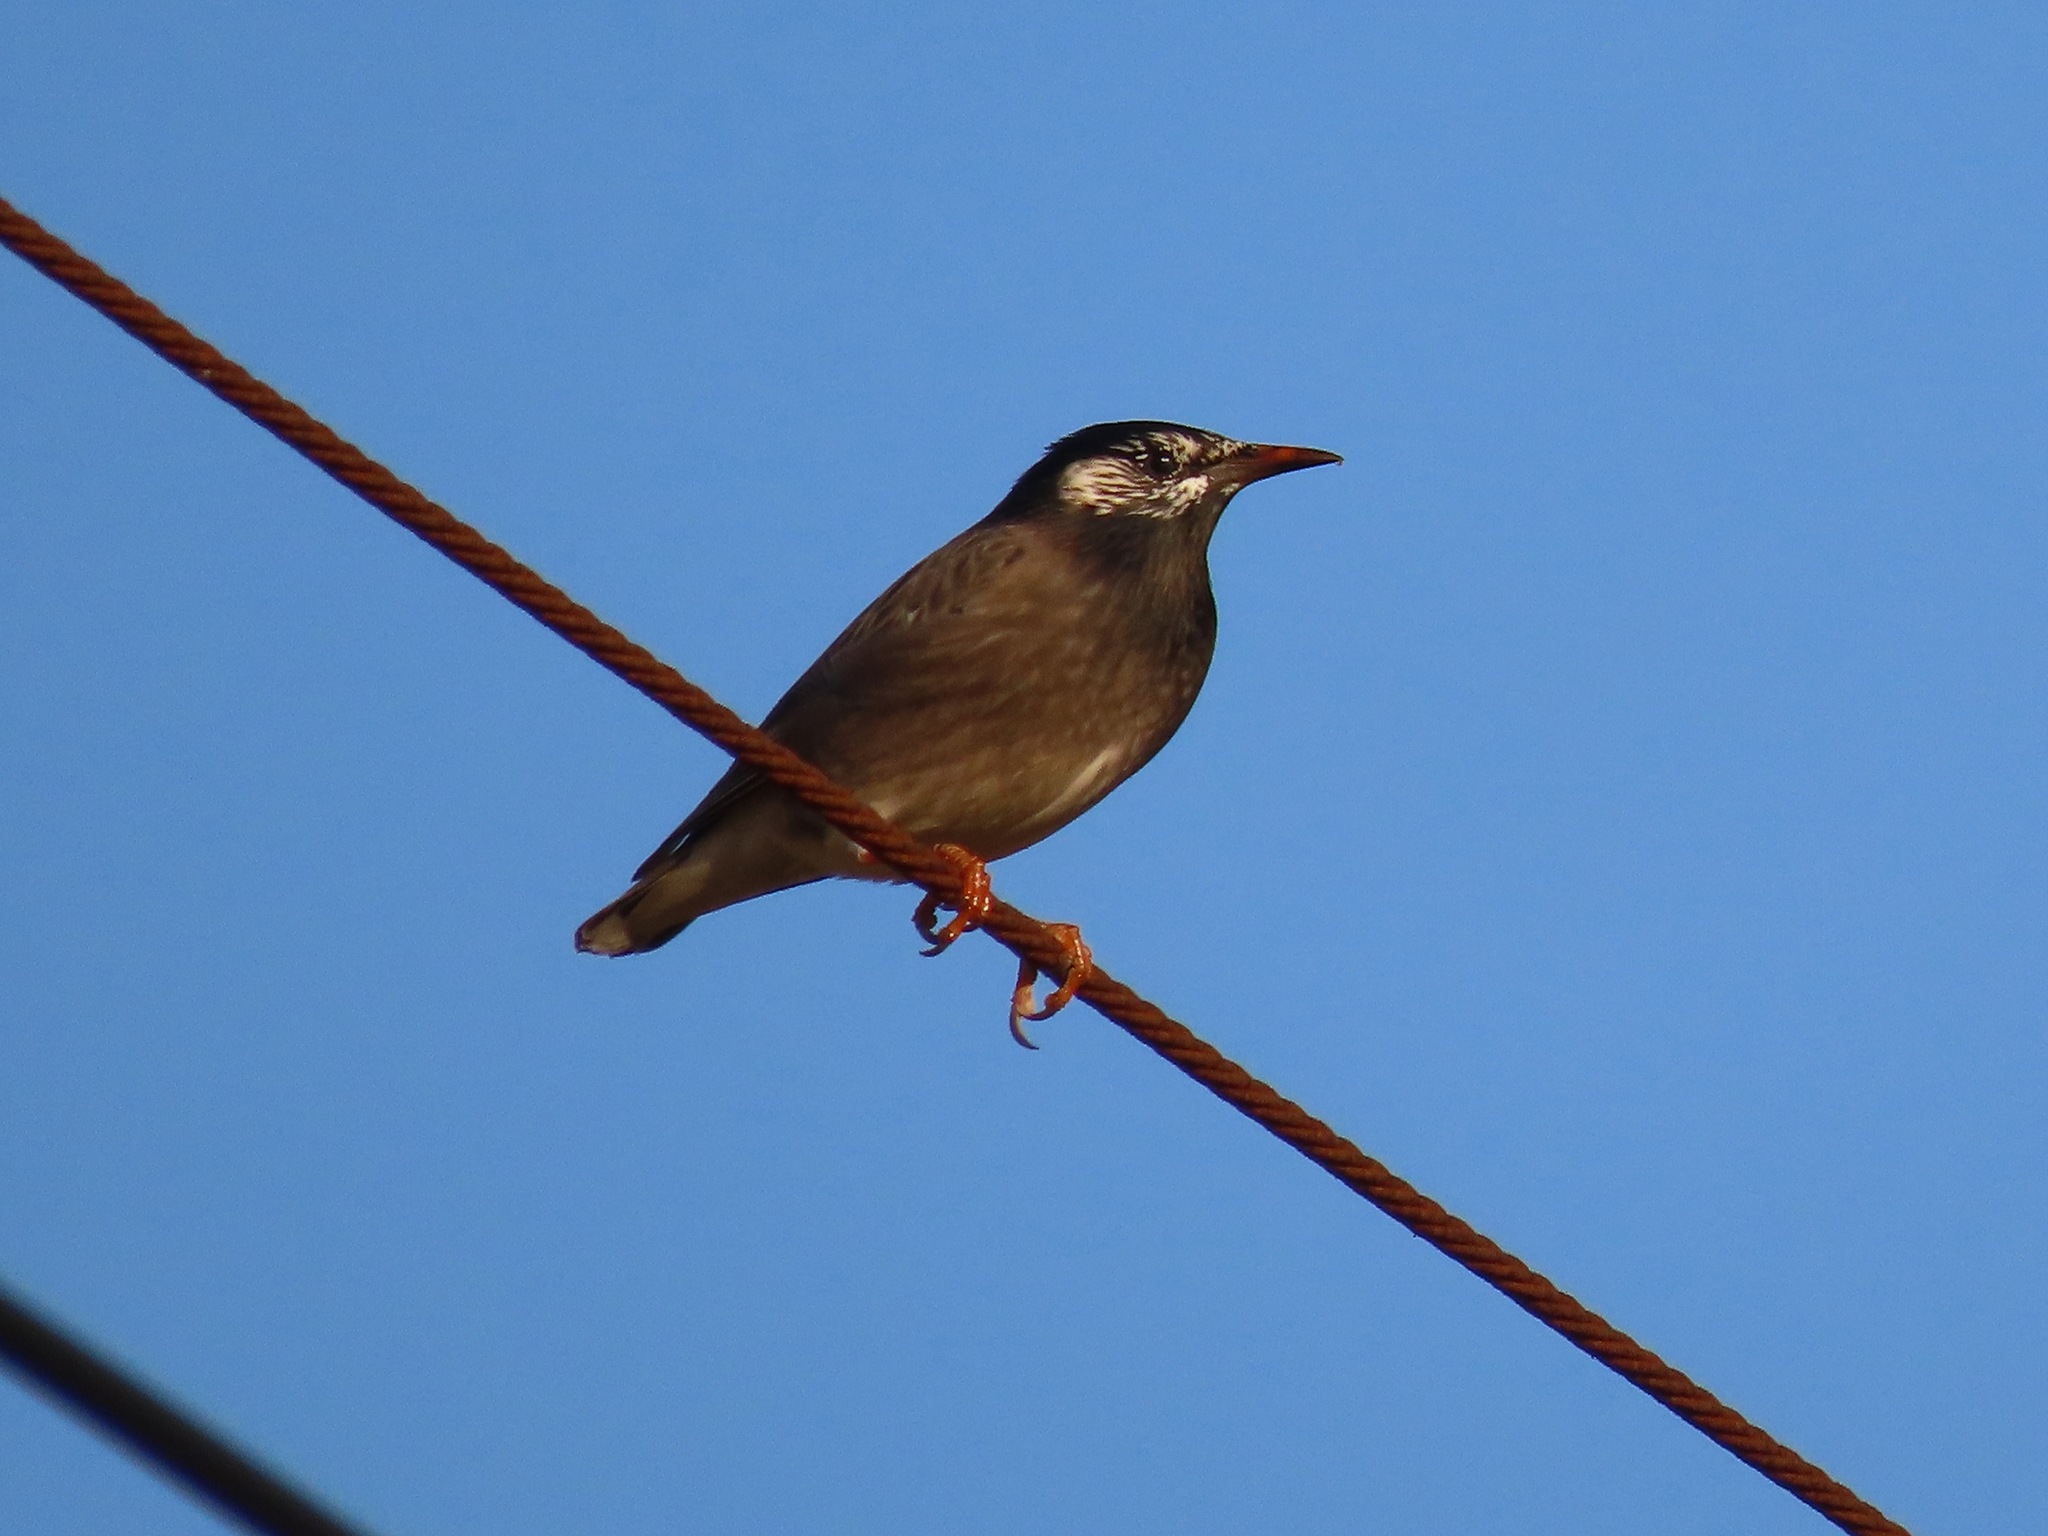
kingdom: Animalia
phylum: Chordata
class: Aves
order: Passeriformes
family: Sturnidae
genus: Spodiopsar
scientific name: Spodiopsar cineraceus
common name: White-cheeked starling
